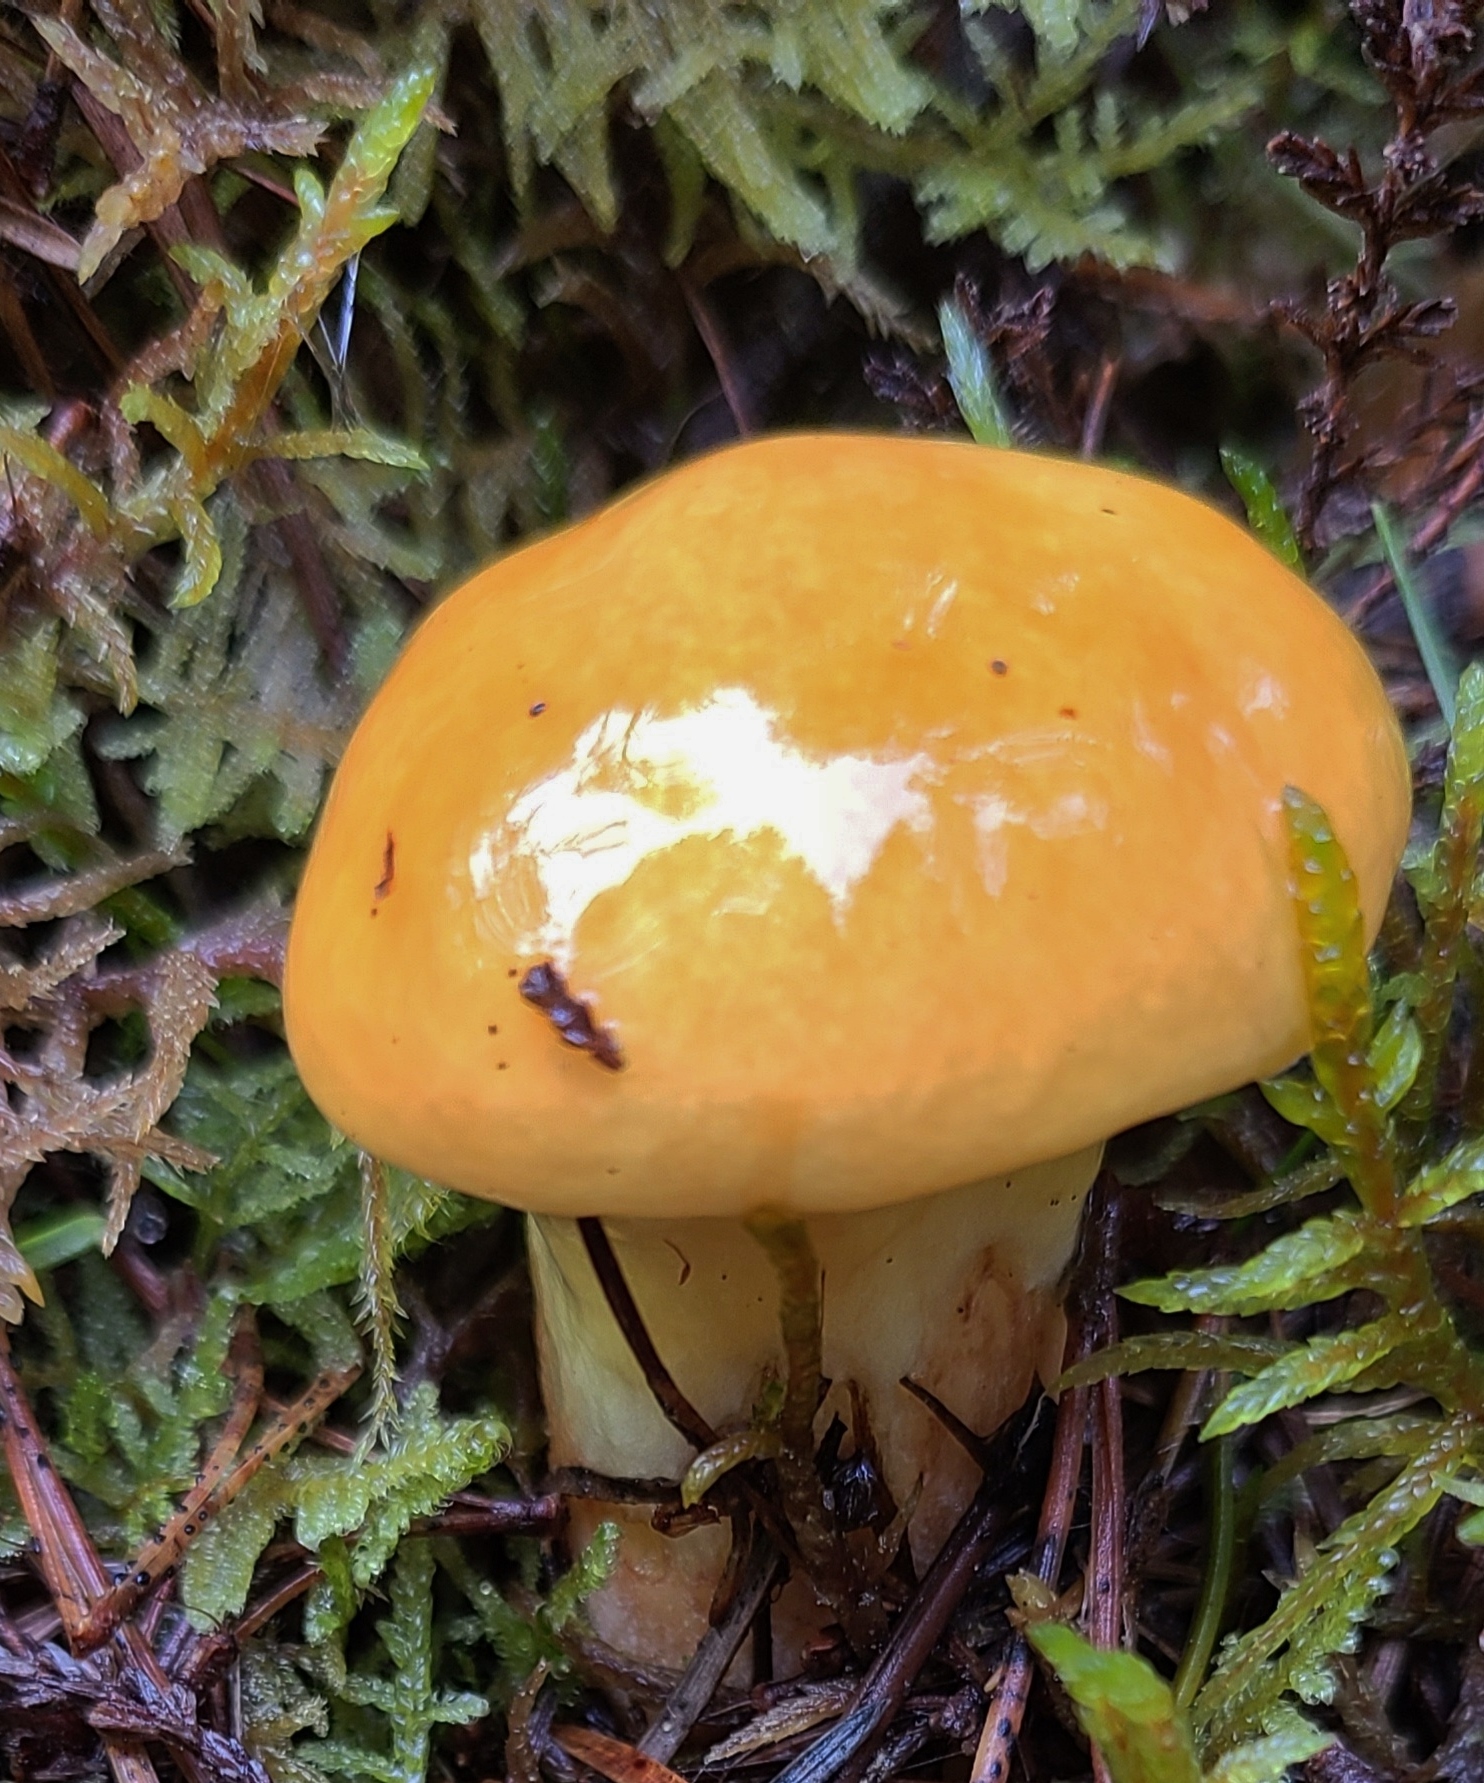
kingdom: Fungi
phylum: Basidiomycota
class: Agaricomycetes
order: Boletales
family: Suillaceae
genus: Suillus
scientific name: Suillus grevillei
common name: Larch bolete
